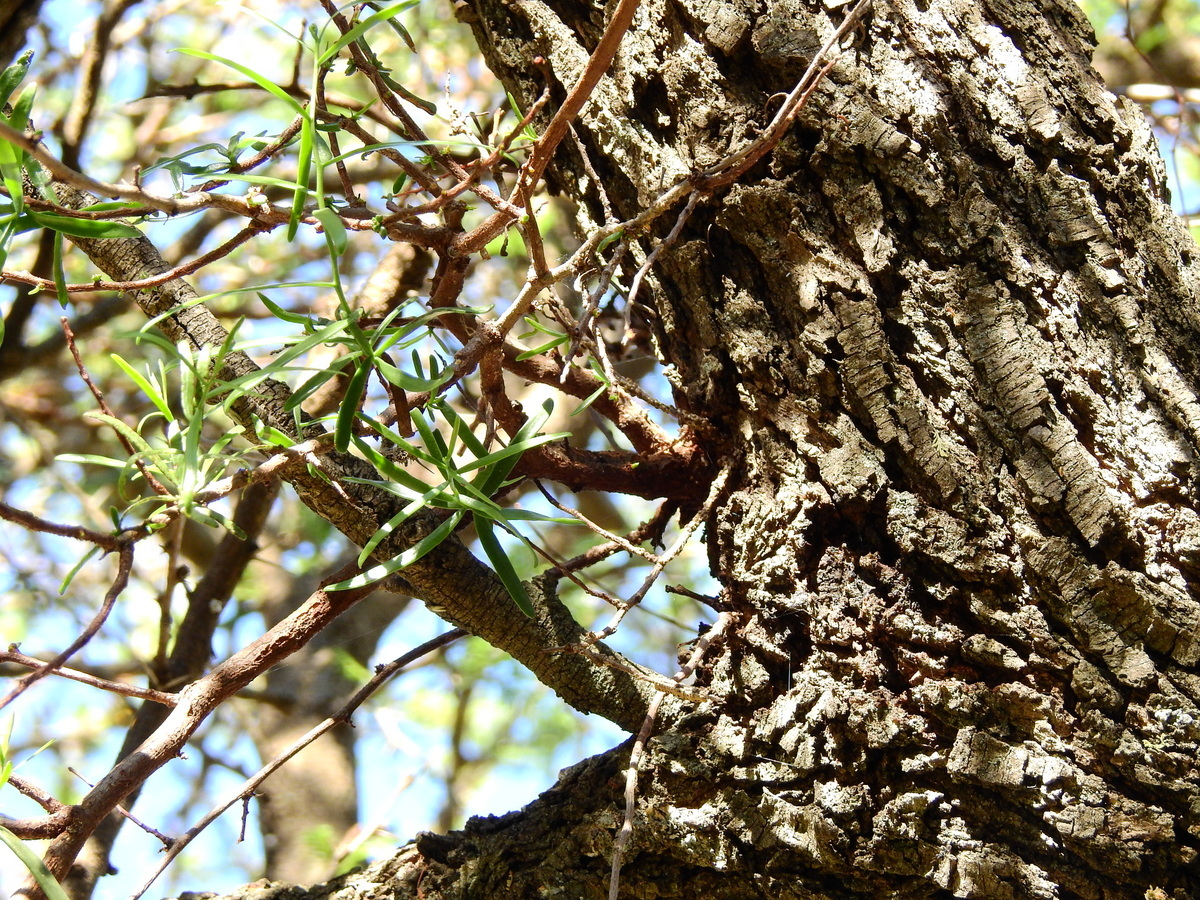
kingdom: Plantae
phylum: Tracheophyta
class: Magnoliopsida
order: Santalales
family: Loranthaceae
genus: Tripodanthus
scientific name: Tripodanthus flagellaris
